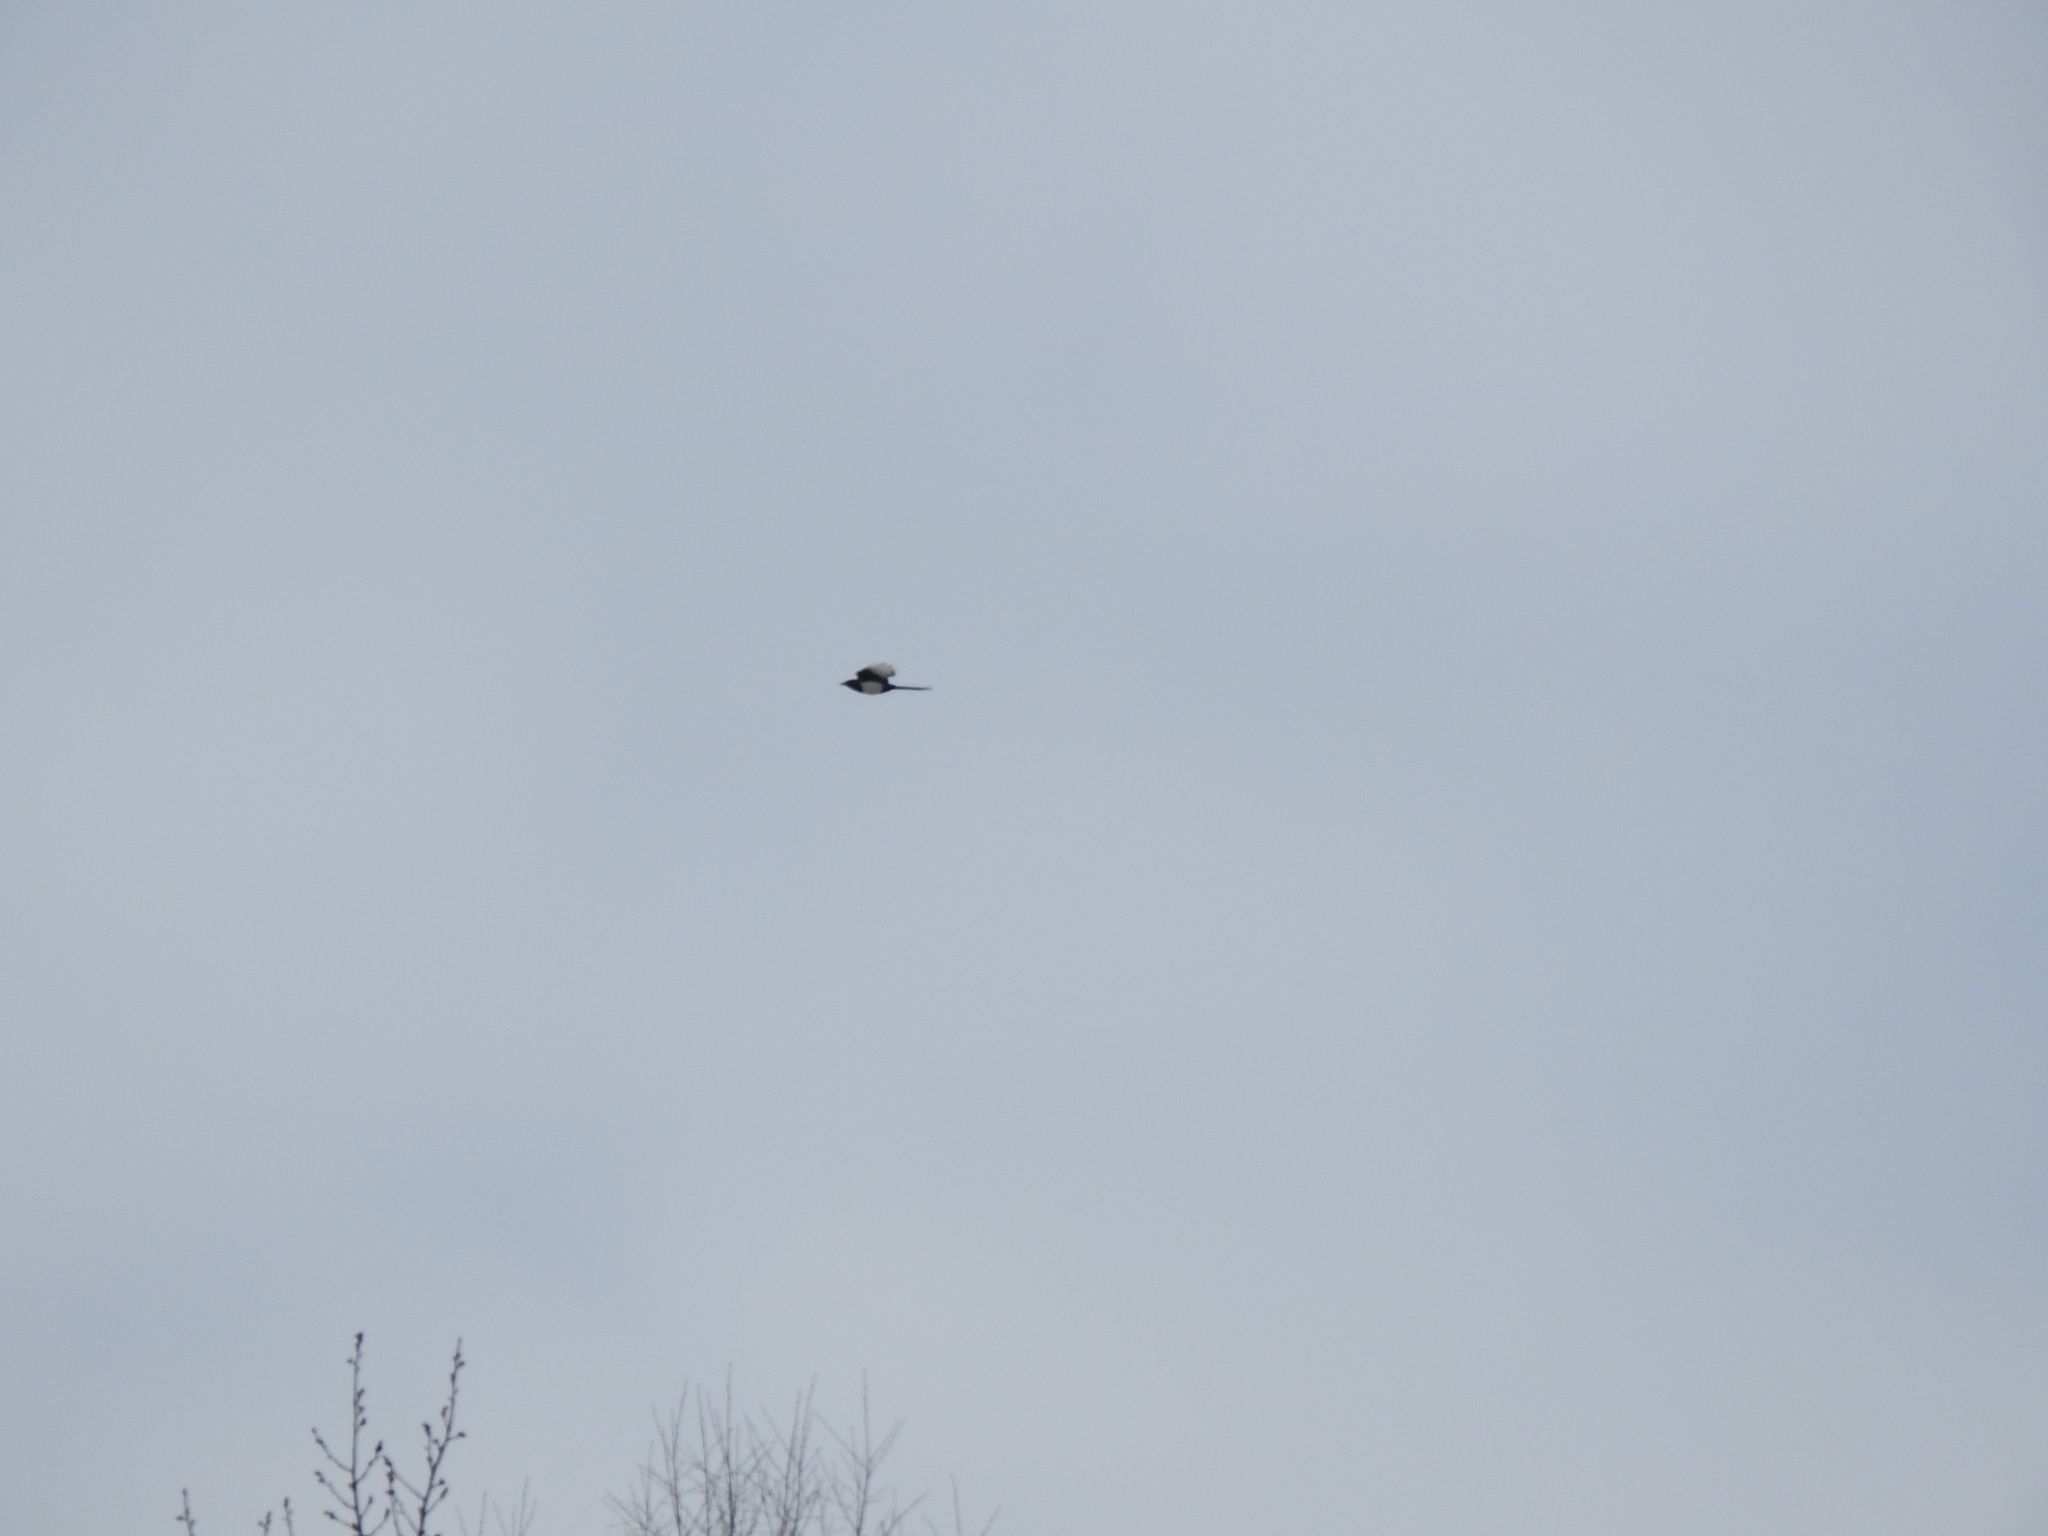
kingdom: Animalia
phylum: Chordata
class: Aves
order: Passeriformes
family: Corvidae
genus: Pica
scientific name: Pica pica
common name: Eurasian magpie
